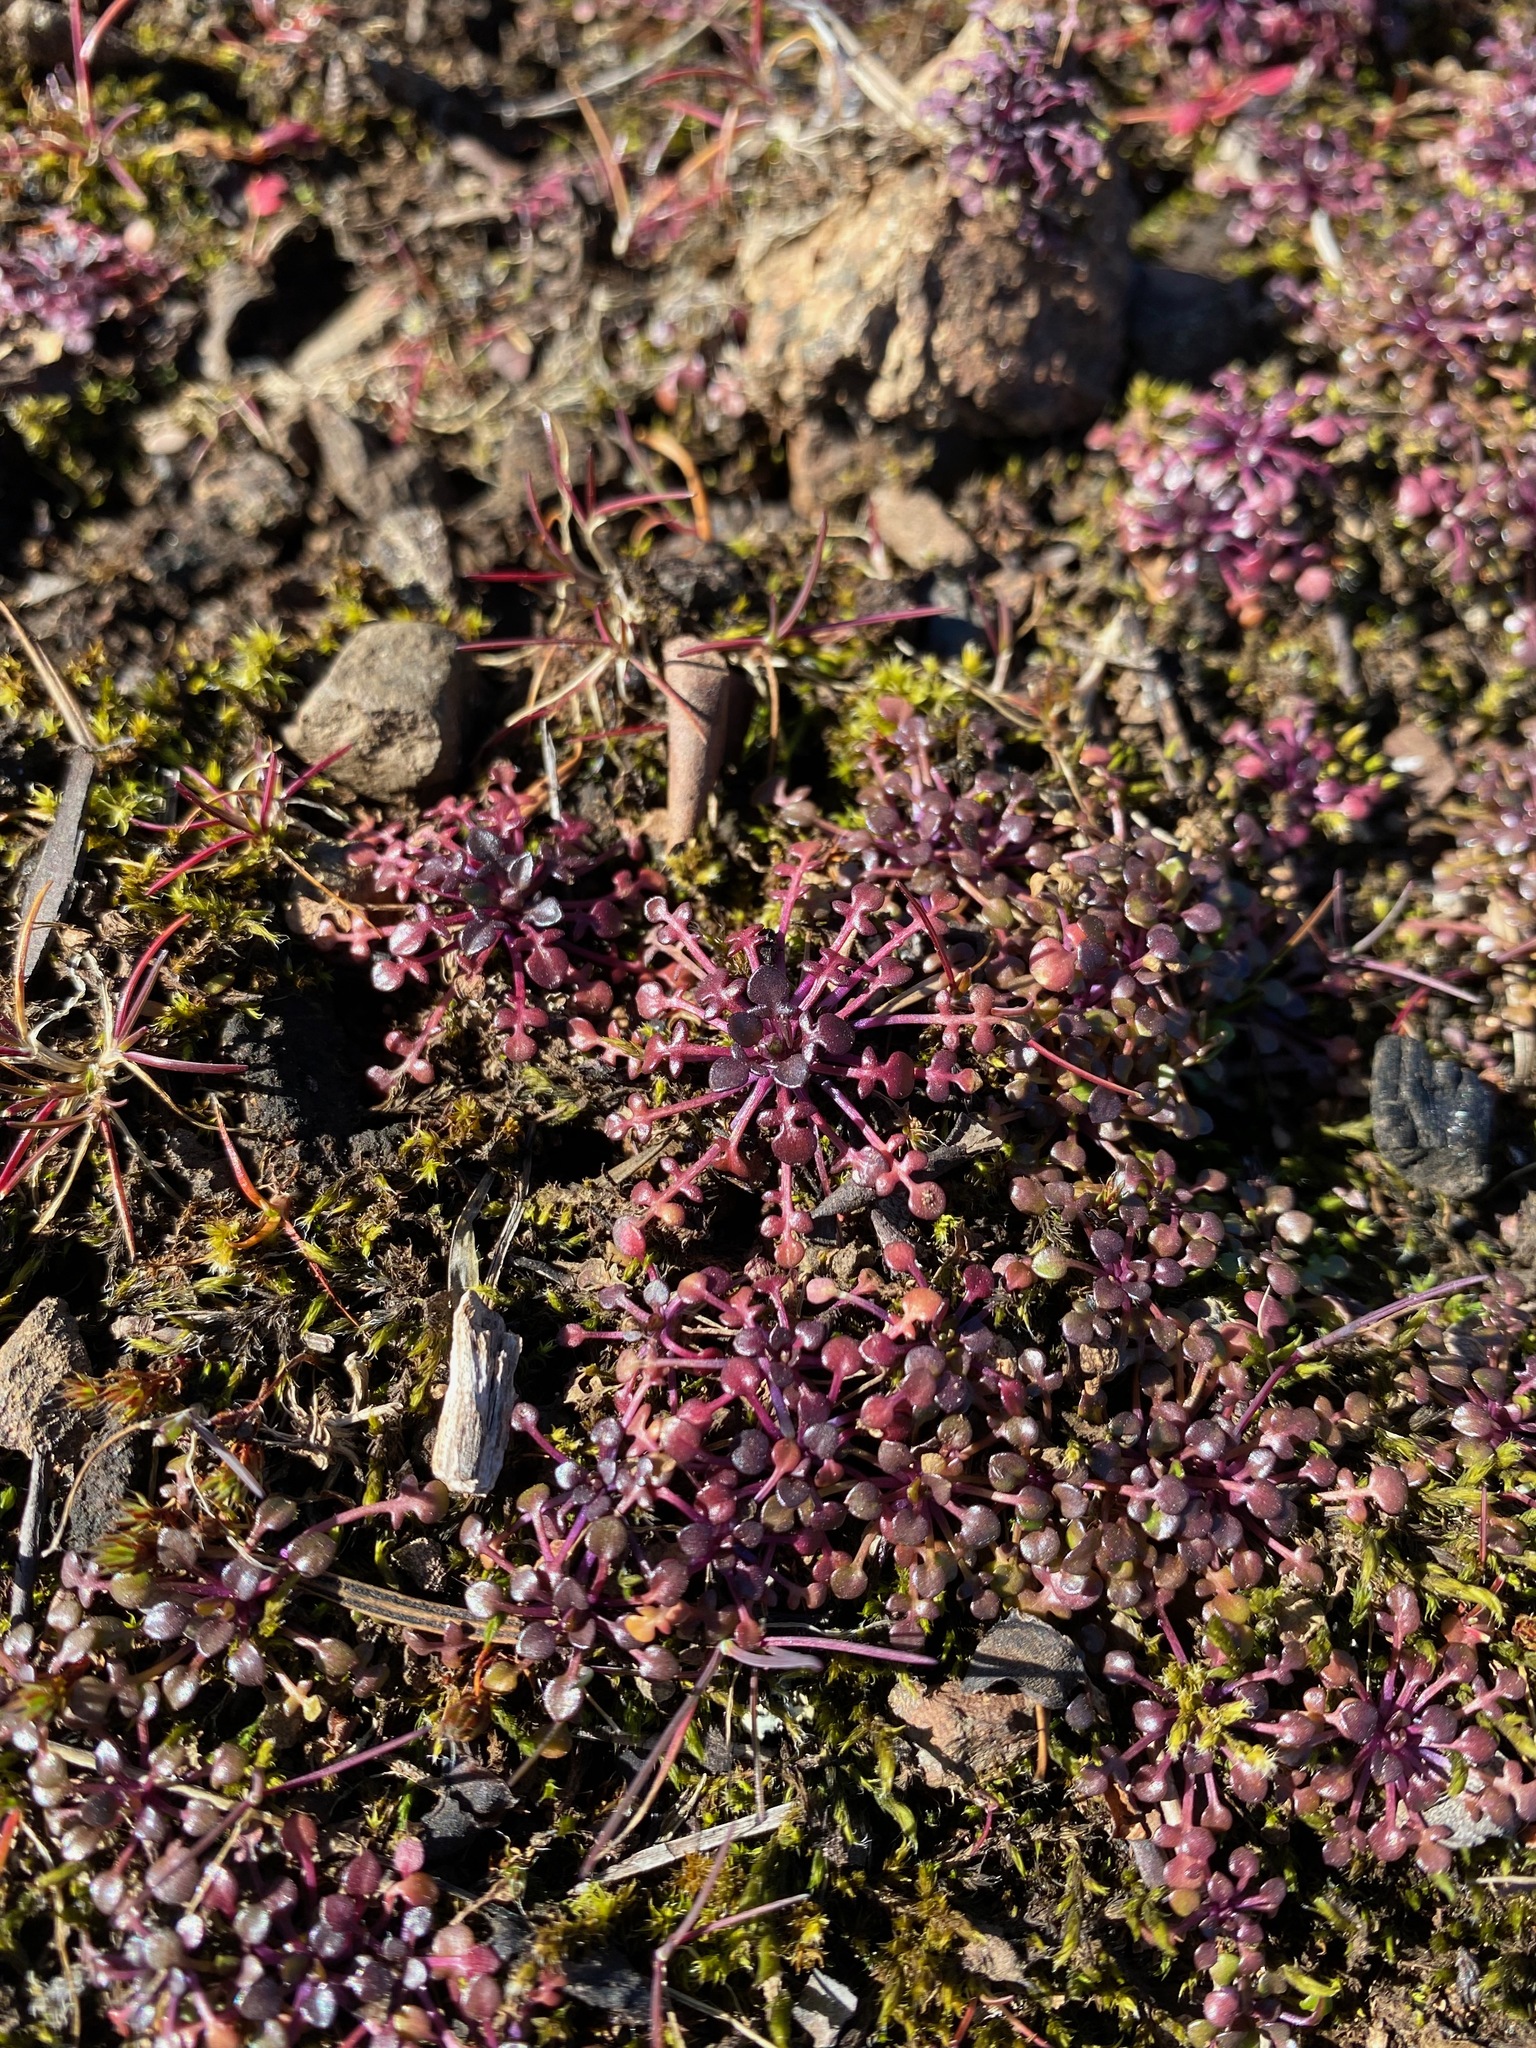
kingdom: Plantae
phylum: Tracheophyta
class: Magnoliopsida
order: Brassicales
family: Brassicaceae
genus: Teesdalia
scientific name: Teesdalia nudicaulis
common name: Shepherd's cress
